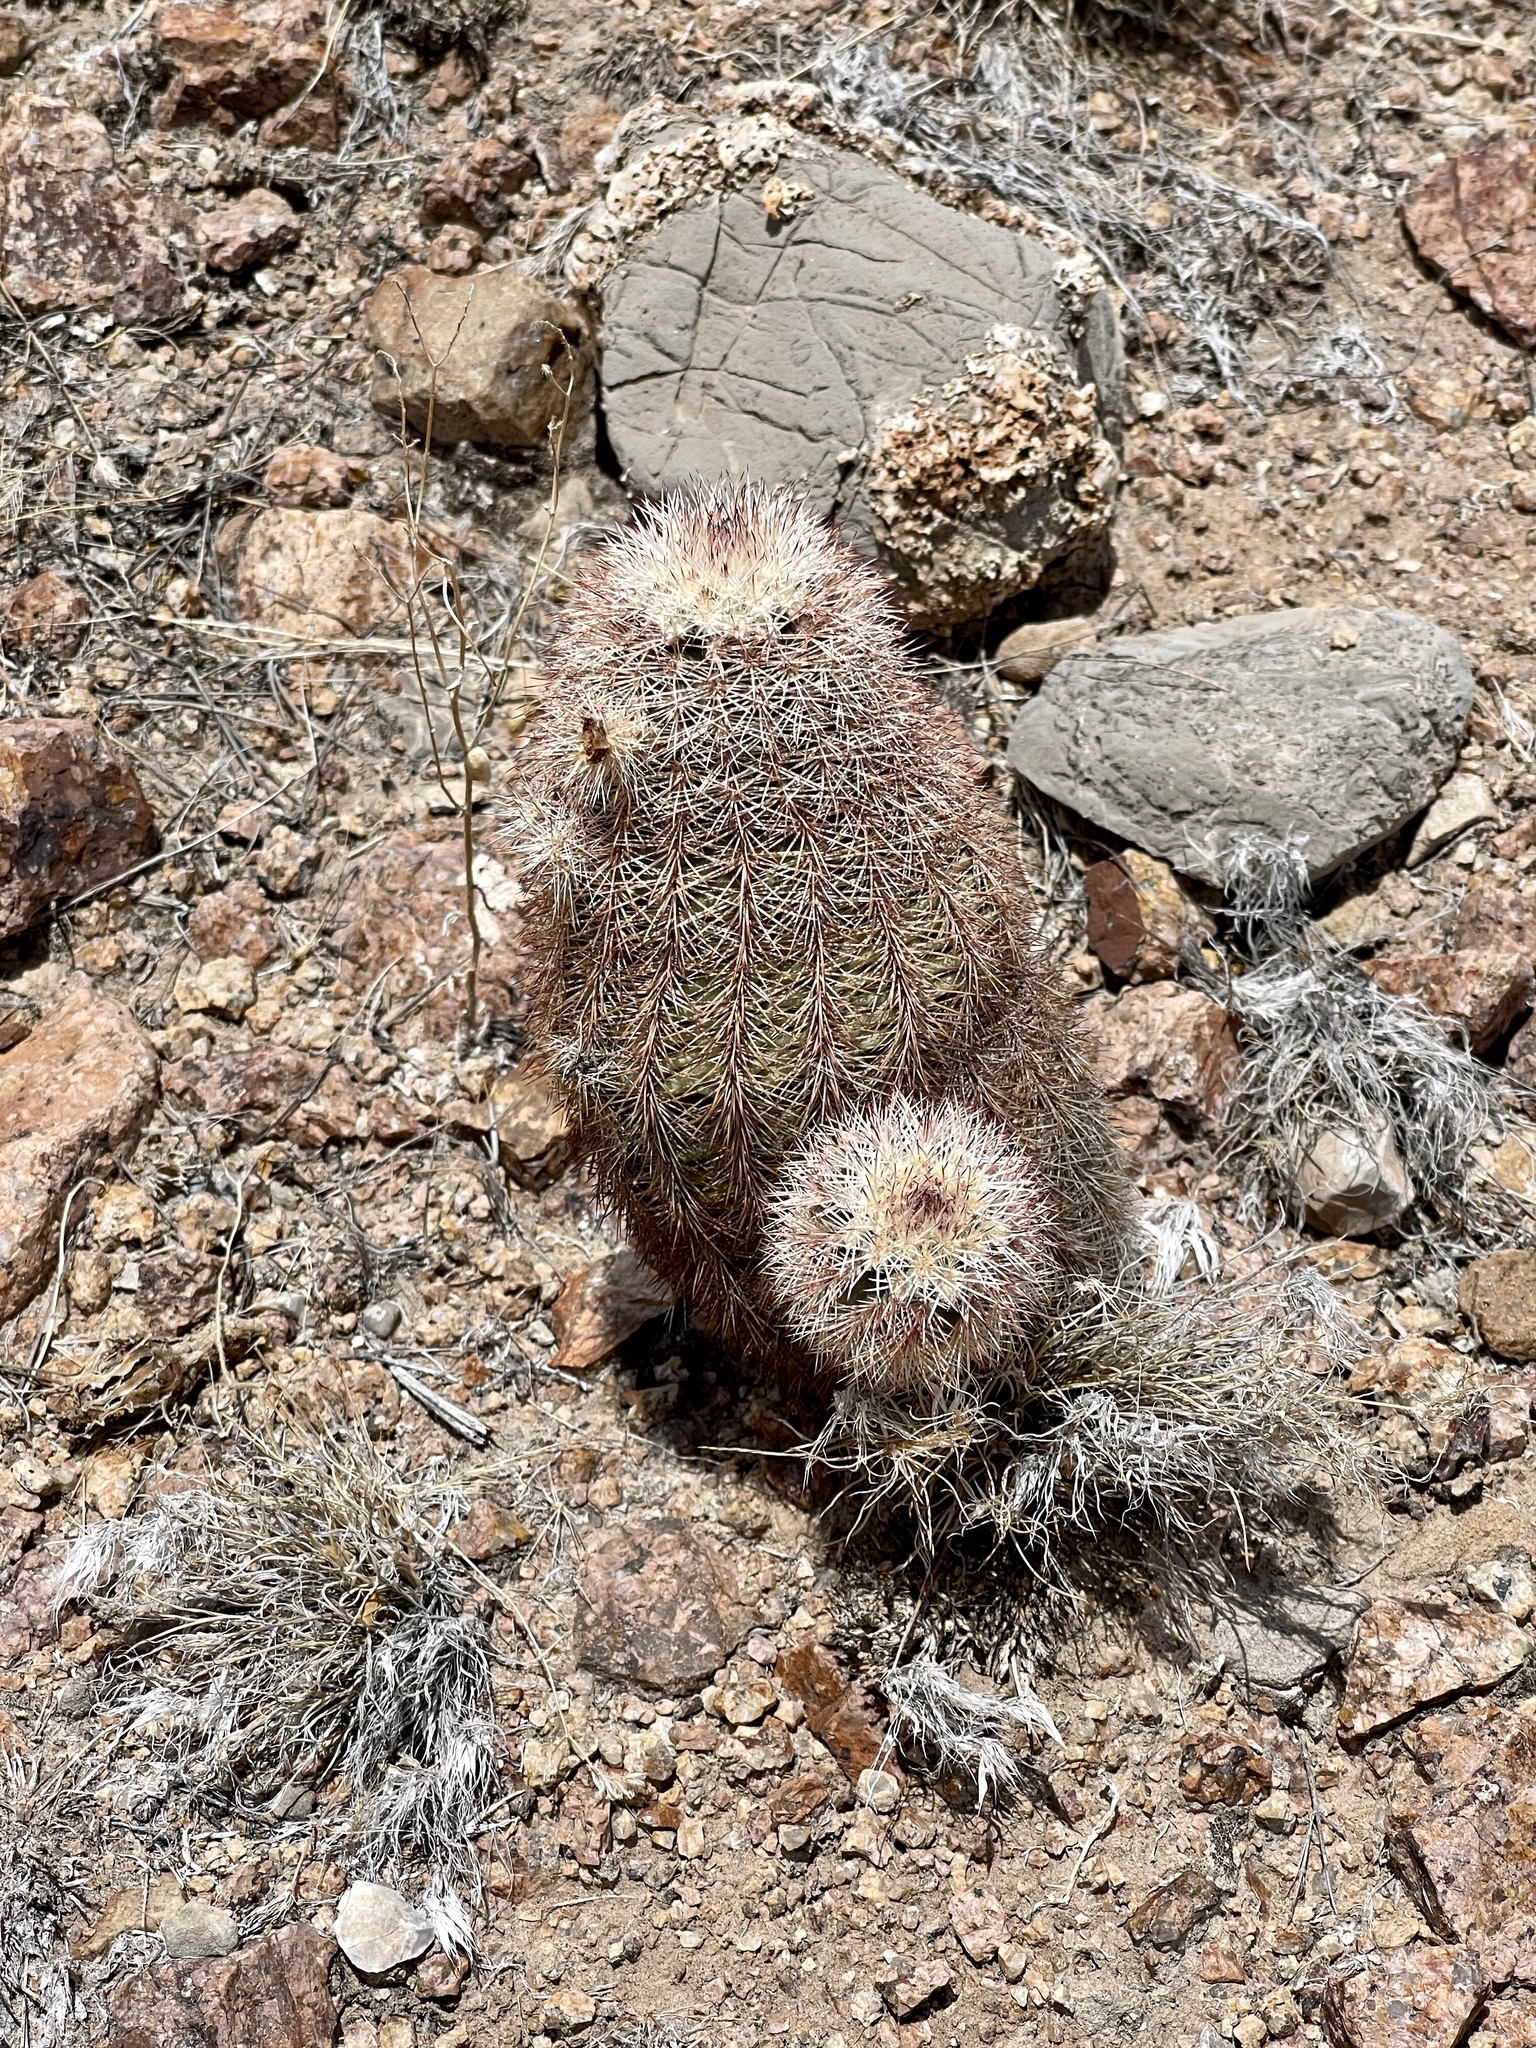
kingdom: Plantae
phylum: Tracheophyta
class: Magnoliopsida
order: Caryophyllales
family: Cactaceae
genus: Echinocereus
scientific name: Echinocereus dasyacanthus
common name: Spiny hedgehog cactus
